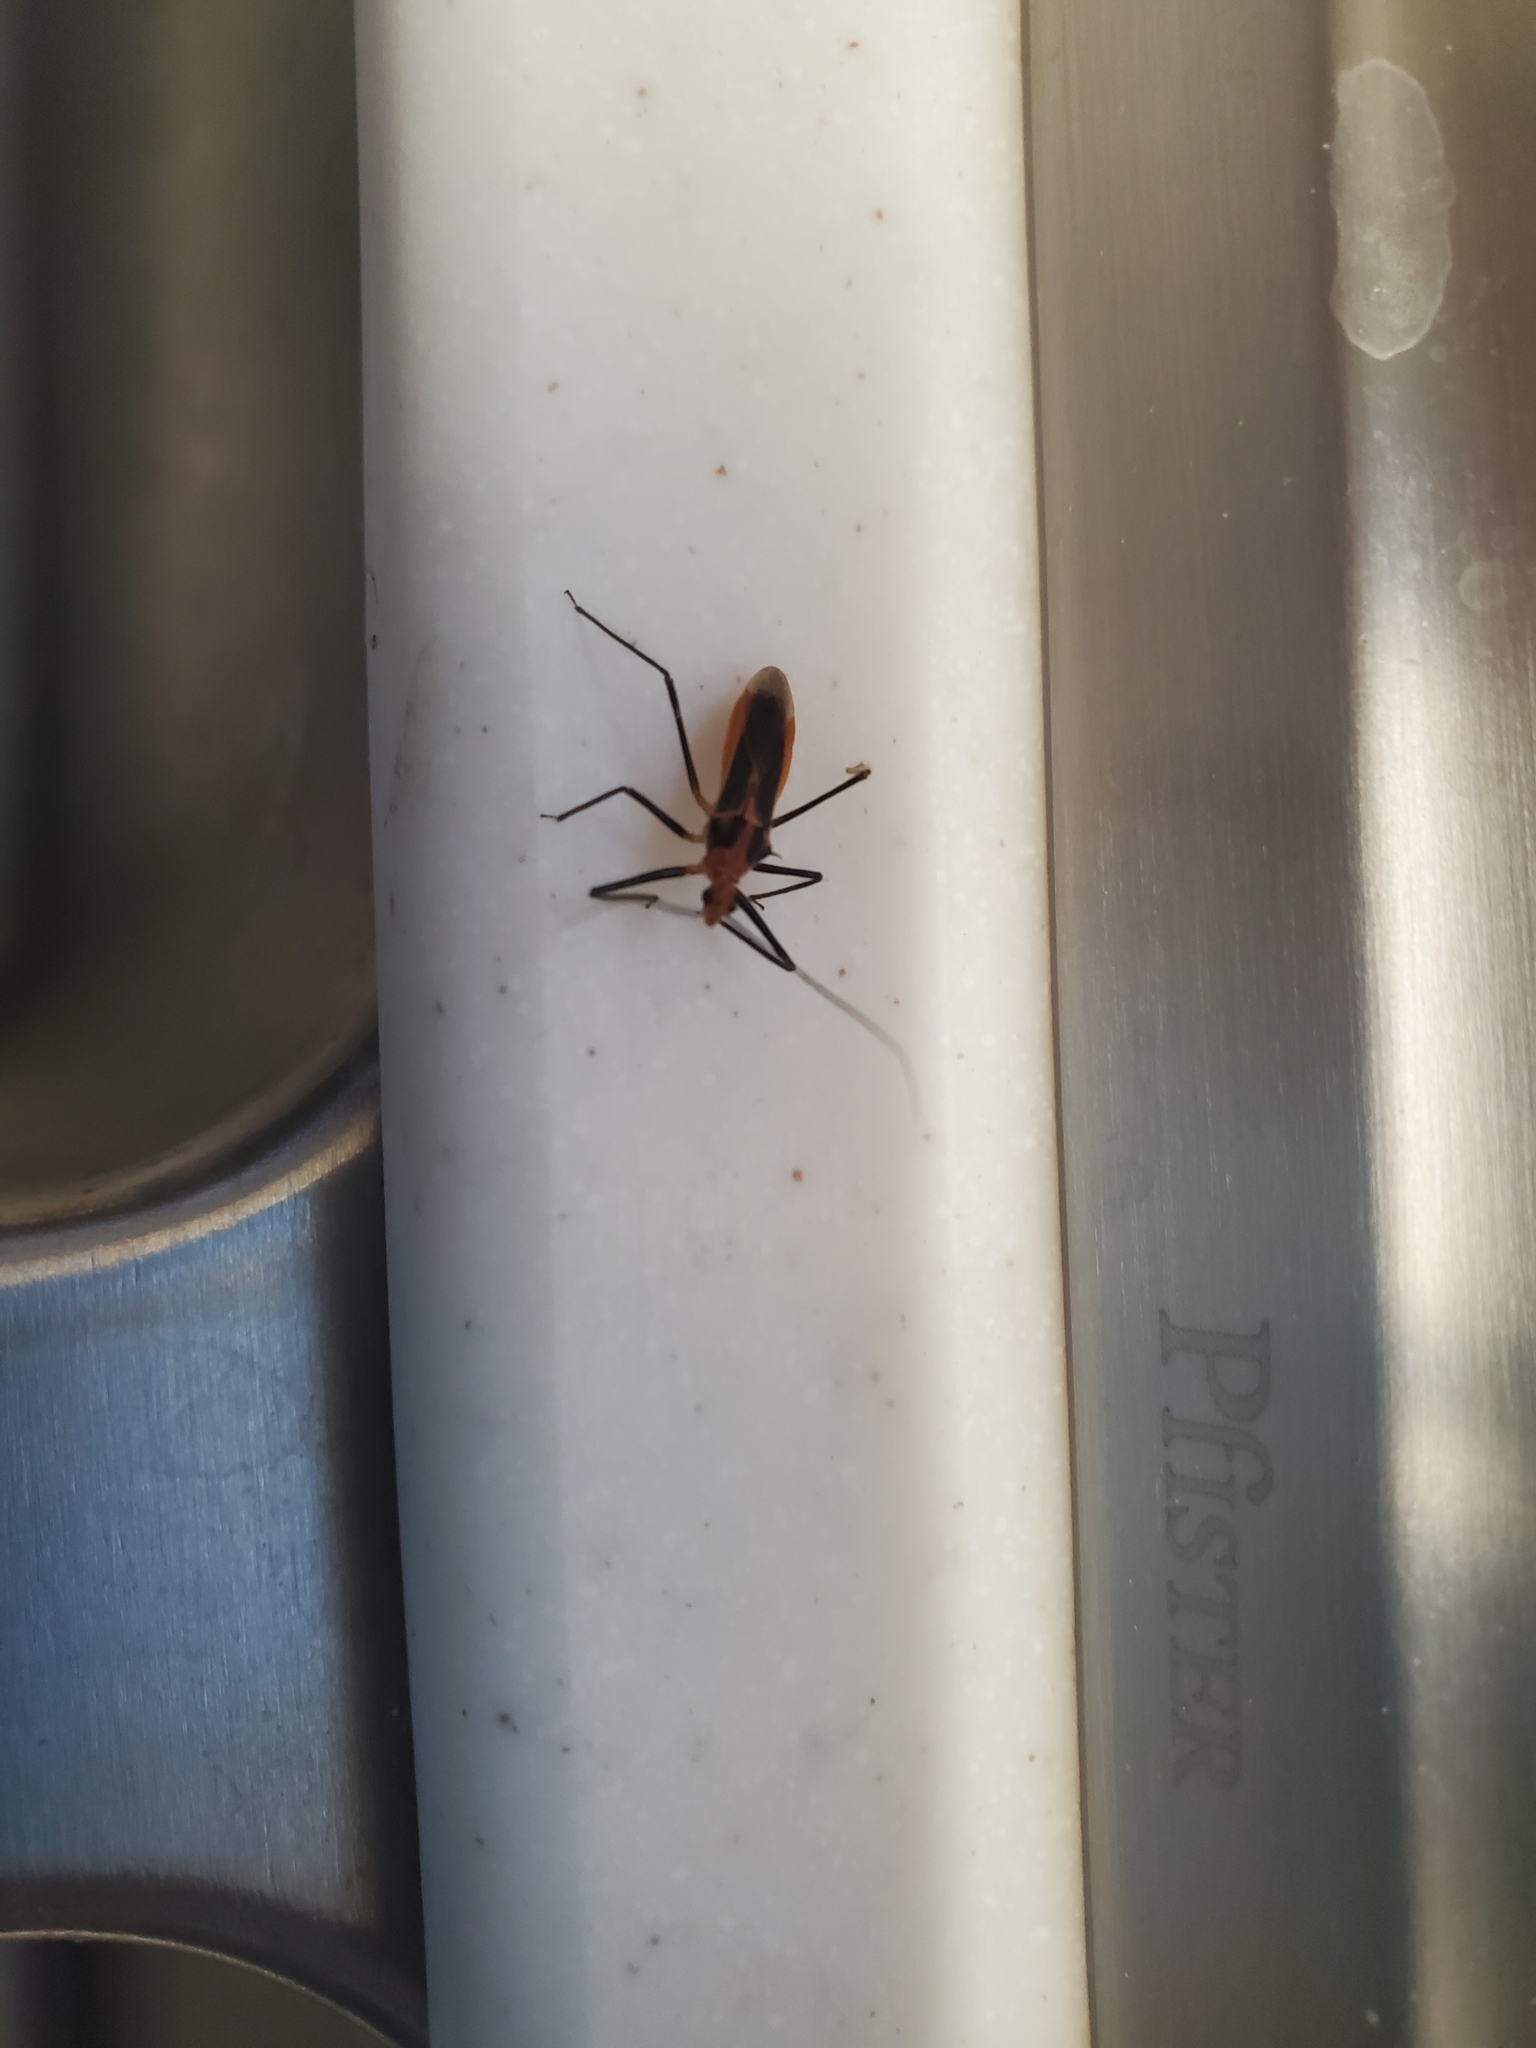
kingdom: Animalia
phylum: Arthropoda
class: Insecta
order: Hemiptera
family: Reduviidae
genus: Repipta
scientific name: Repipta taurus
